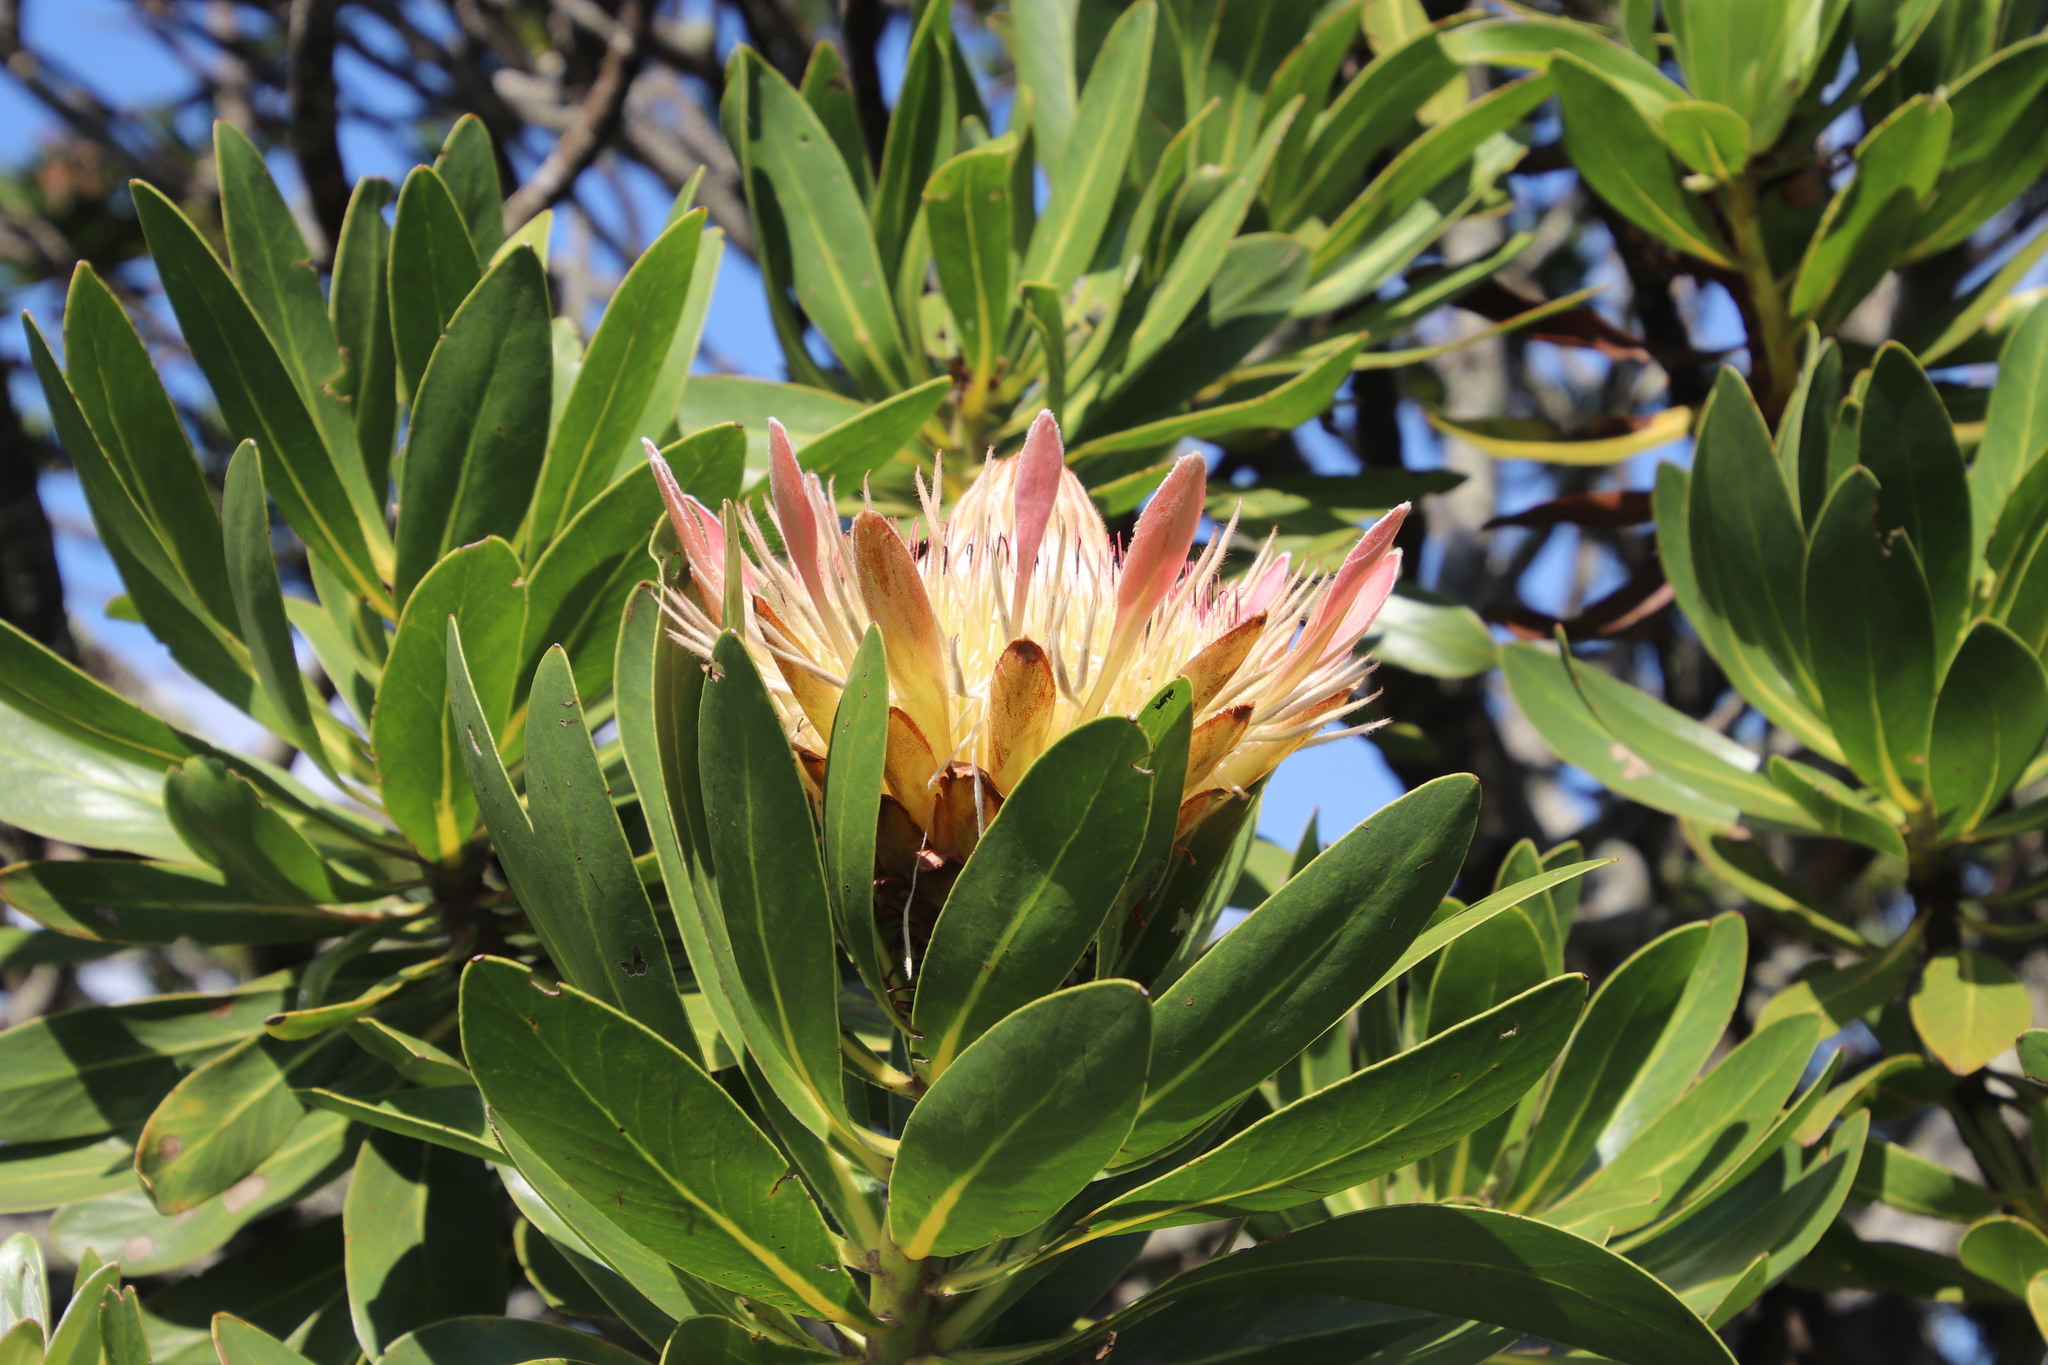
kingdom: Plantae
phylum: Tracheophyta
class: Magnoliopsida
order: Proteales
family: Proteaceae
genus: Protea
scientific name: Protea roupelliae
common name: Silver sugarbush
